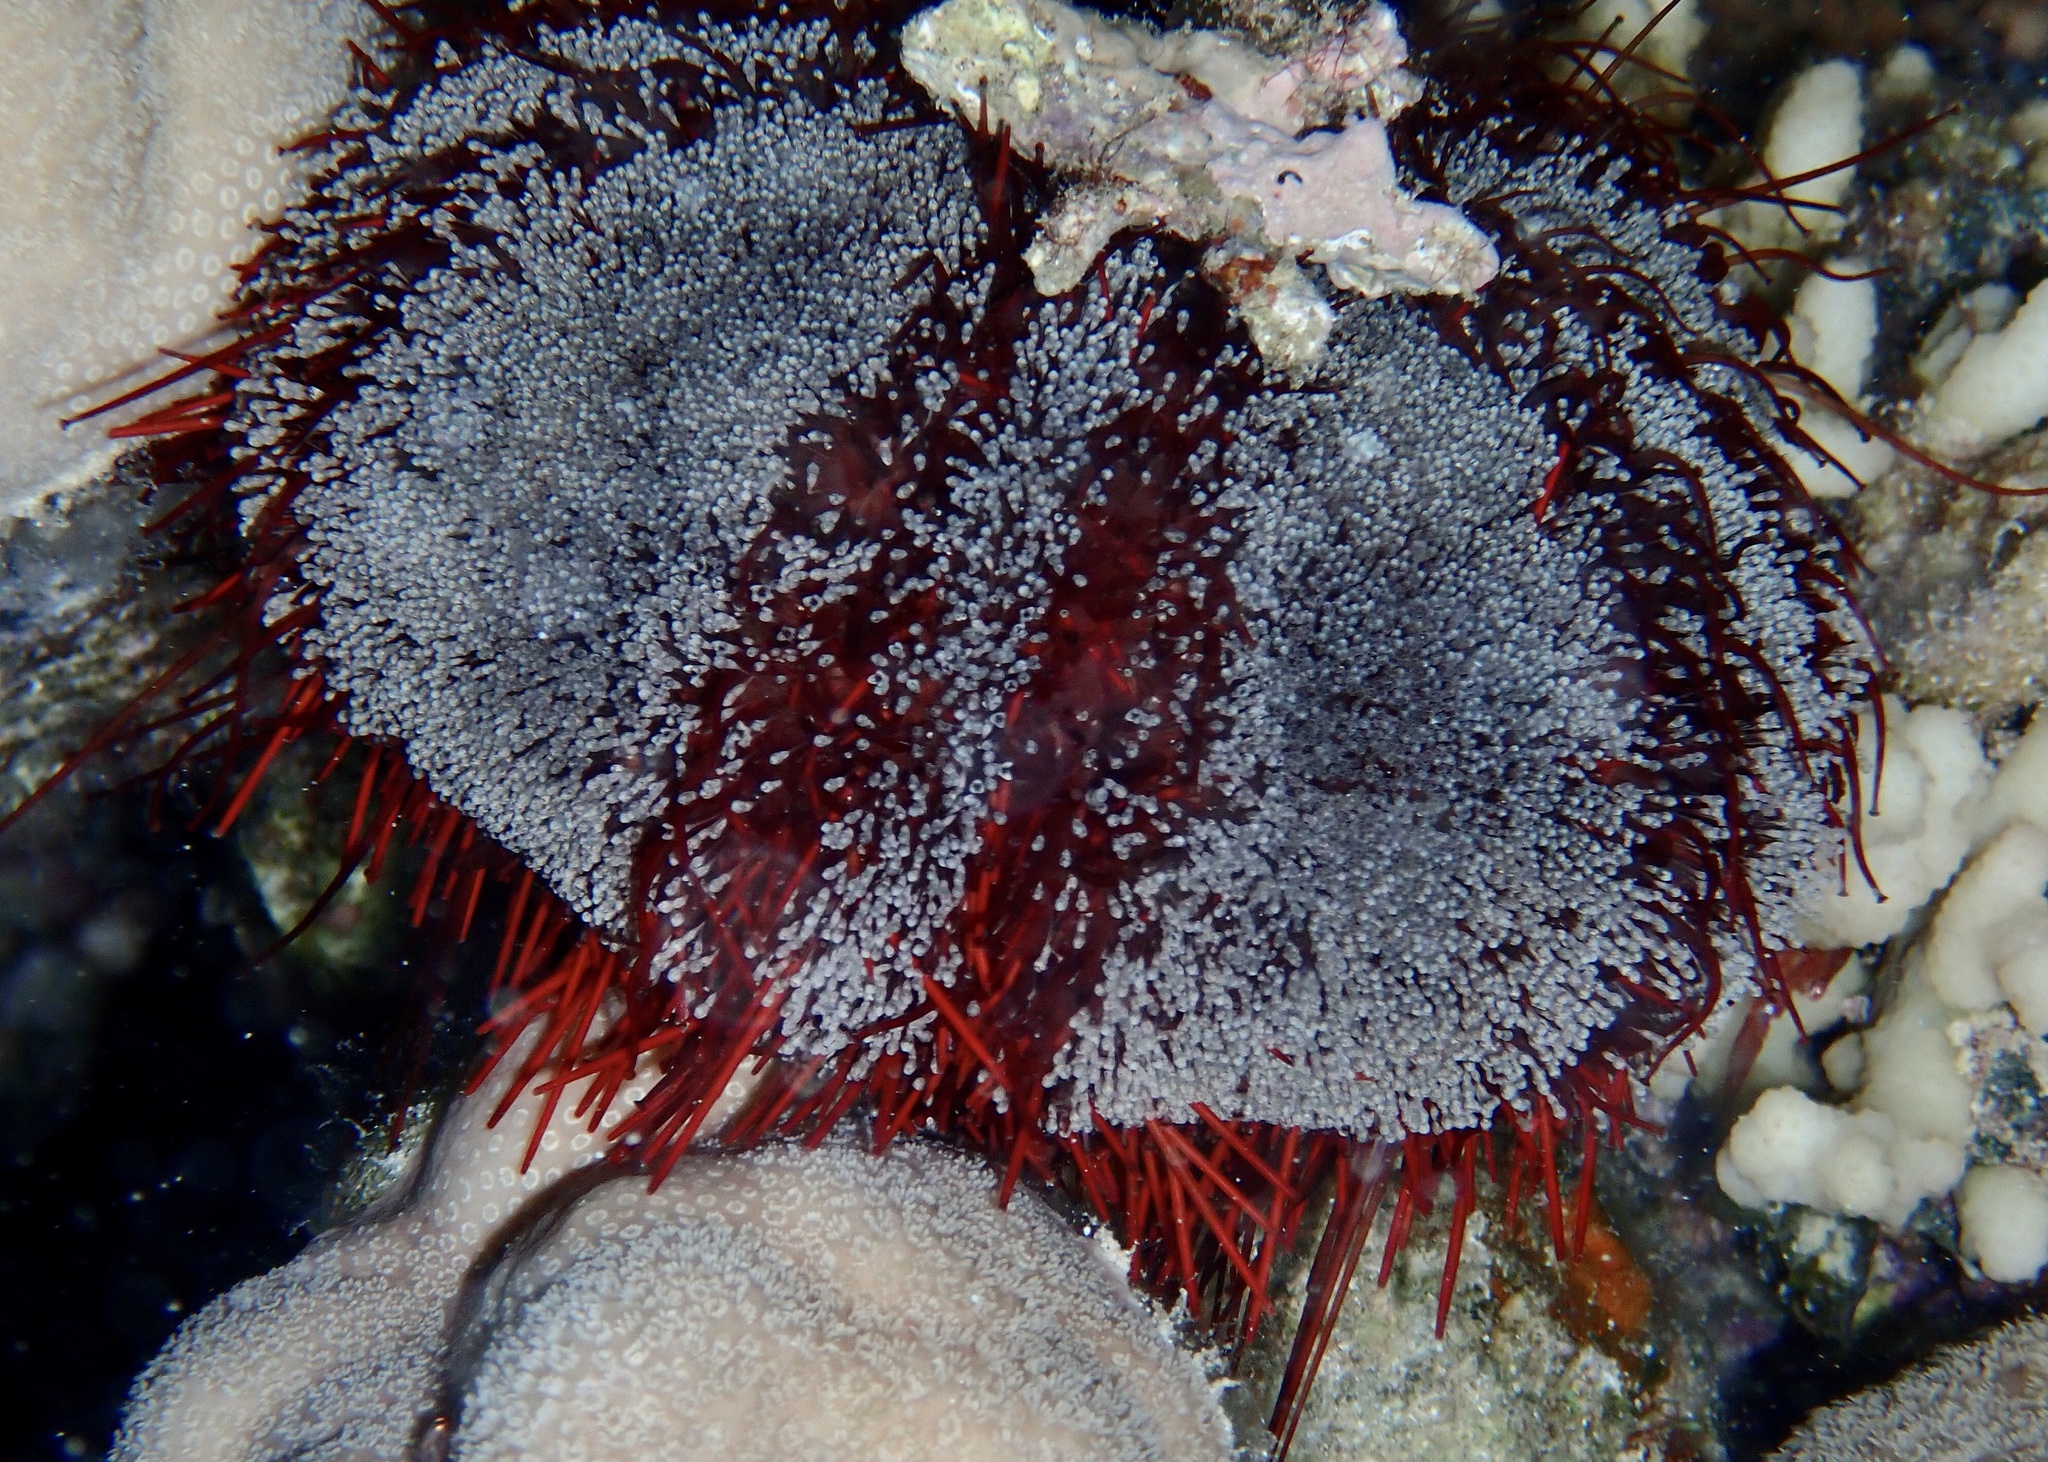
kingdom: Animalia
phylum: Echinodermata
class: Echinoidea
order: Camarodonta
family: Toxopneustidae
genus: Tripneustes
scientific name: Tripneustes gratilla
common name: Bischofsmützenseeigel
